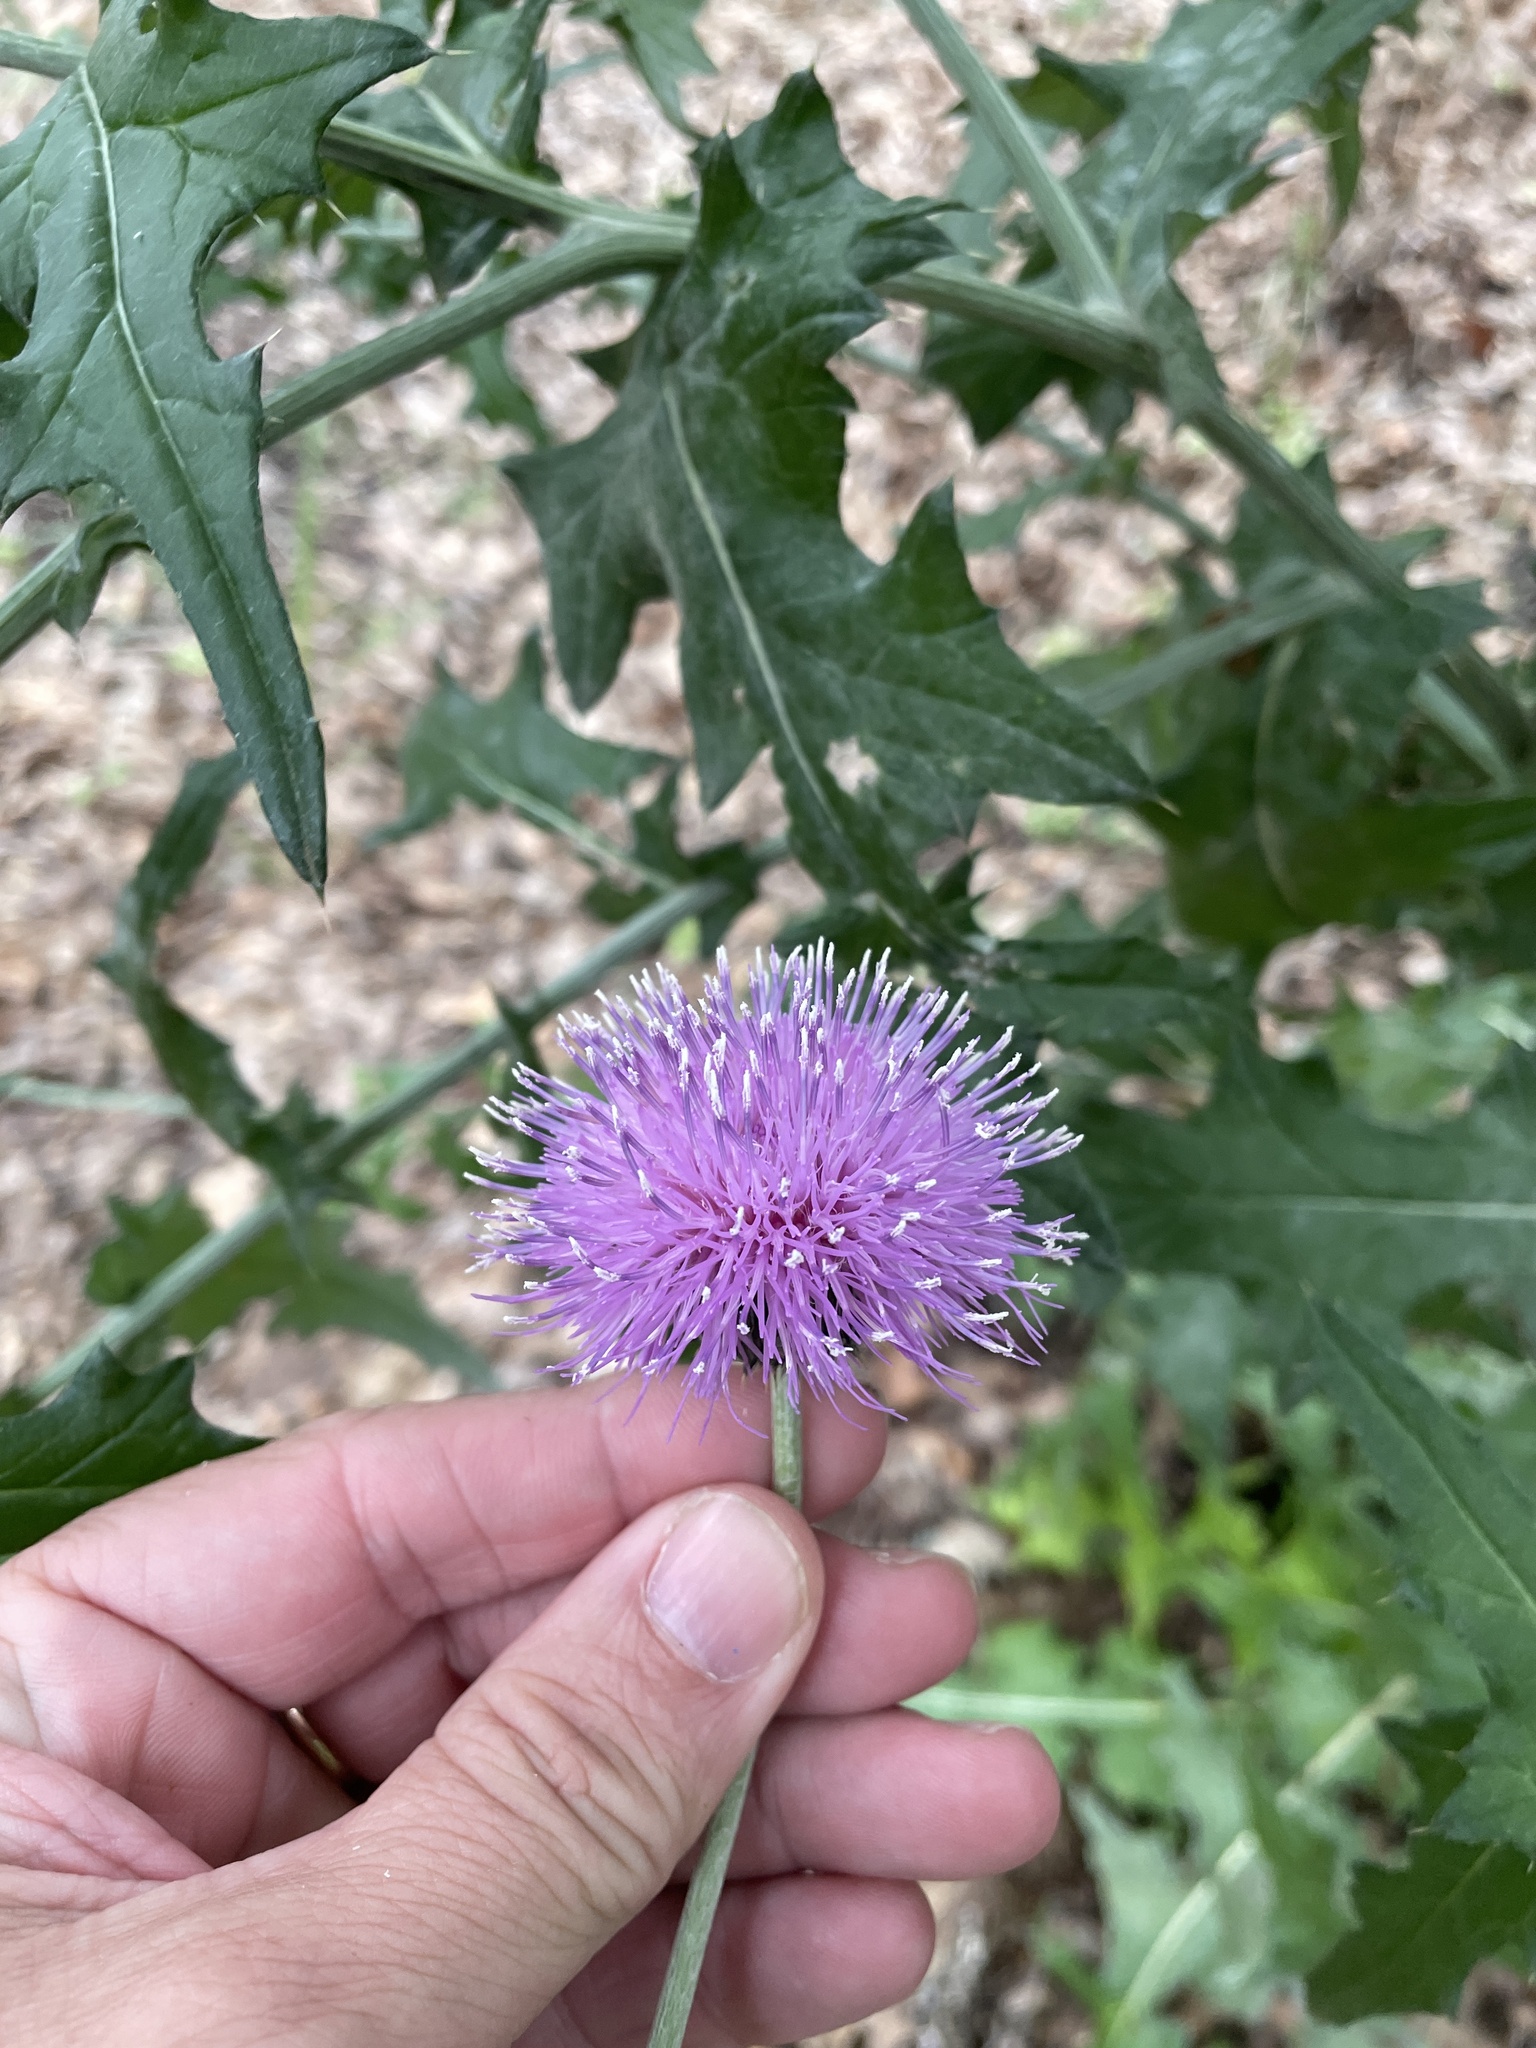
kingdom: Plantae
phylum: Tracheophyta
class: Magnoliopsida
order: Asterales
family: Asteraceae
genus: Cirsium
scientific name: Cirsium texanum
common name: Texas purple thistle
